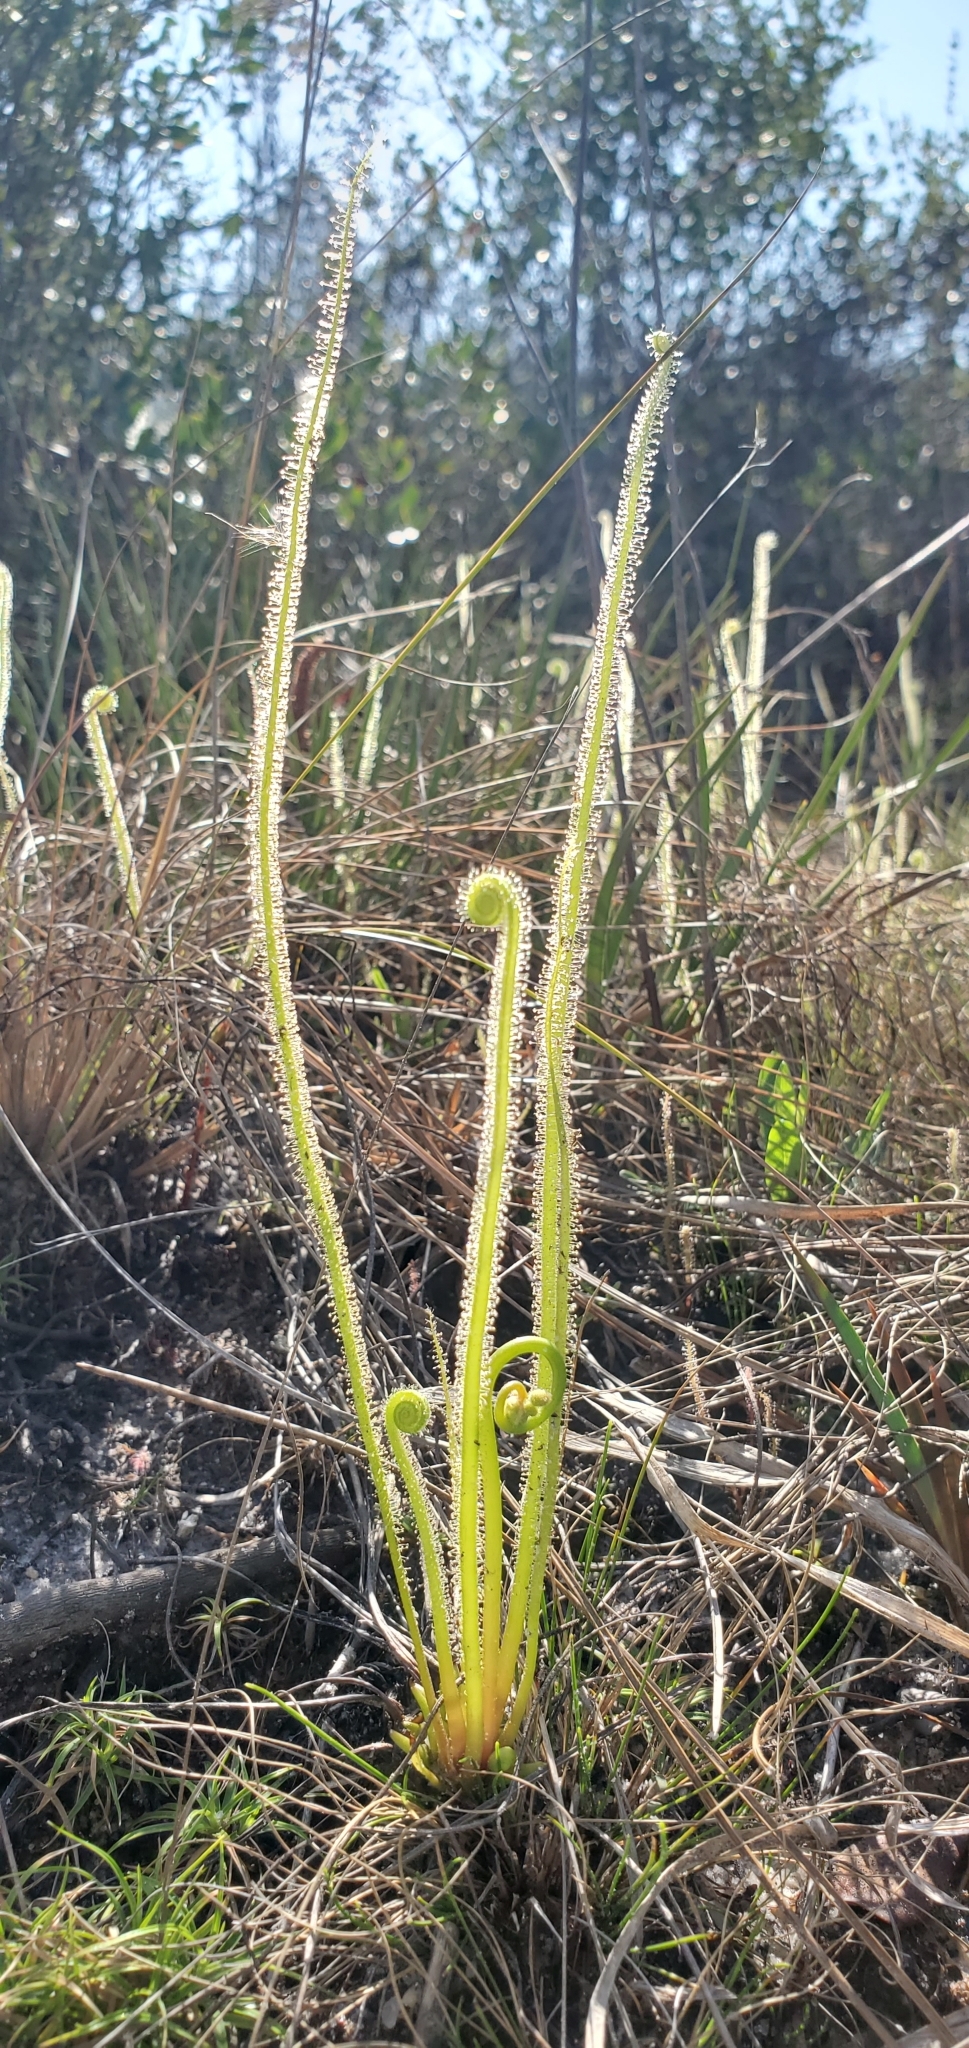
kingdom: Plantae
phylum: Tracheophyta
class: Magnoliopsida
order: Caryophyllales
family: Droseraceae
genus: Drosera
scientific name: Drosera filiformis
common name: Dew-thread
